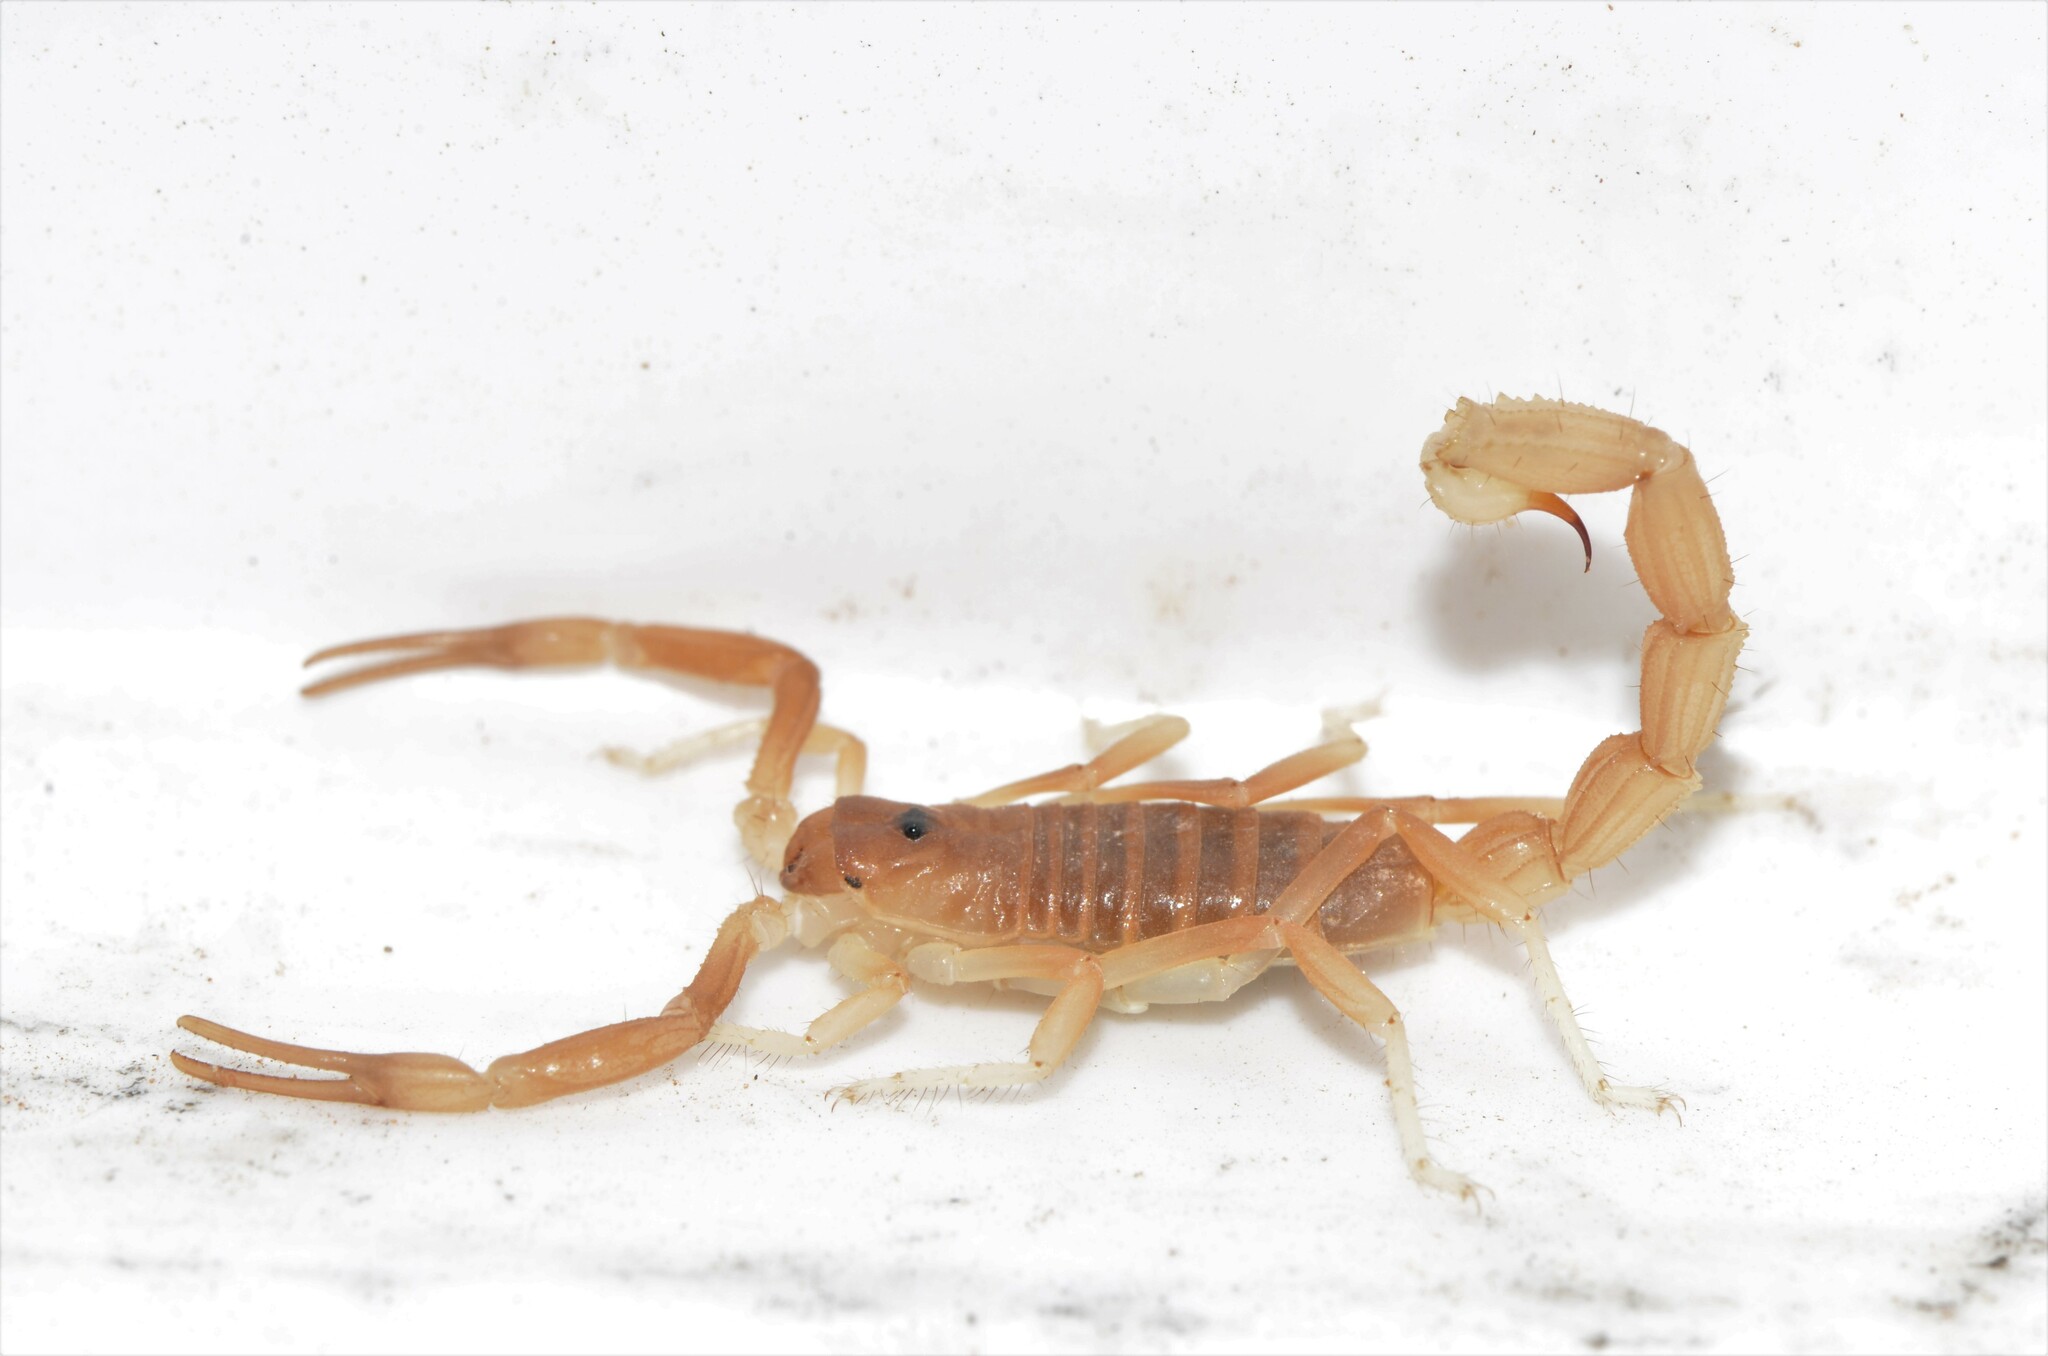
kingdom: Animalia
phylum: Arthropoda
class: Arachnida
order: Scorpiones
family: Buthidae
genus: Parabuthus
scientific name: Parabuthus granulatus
